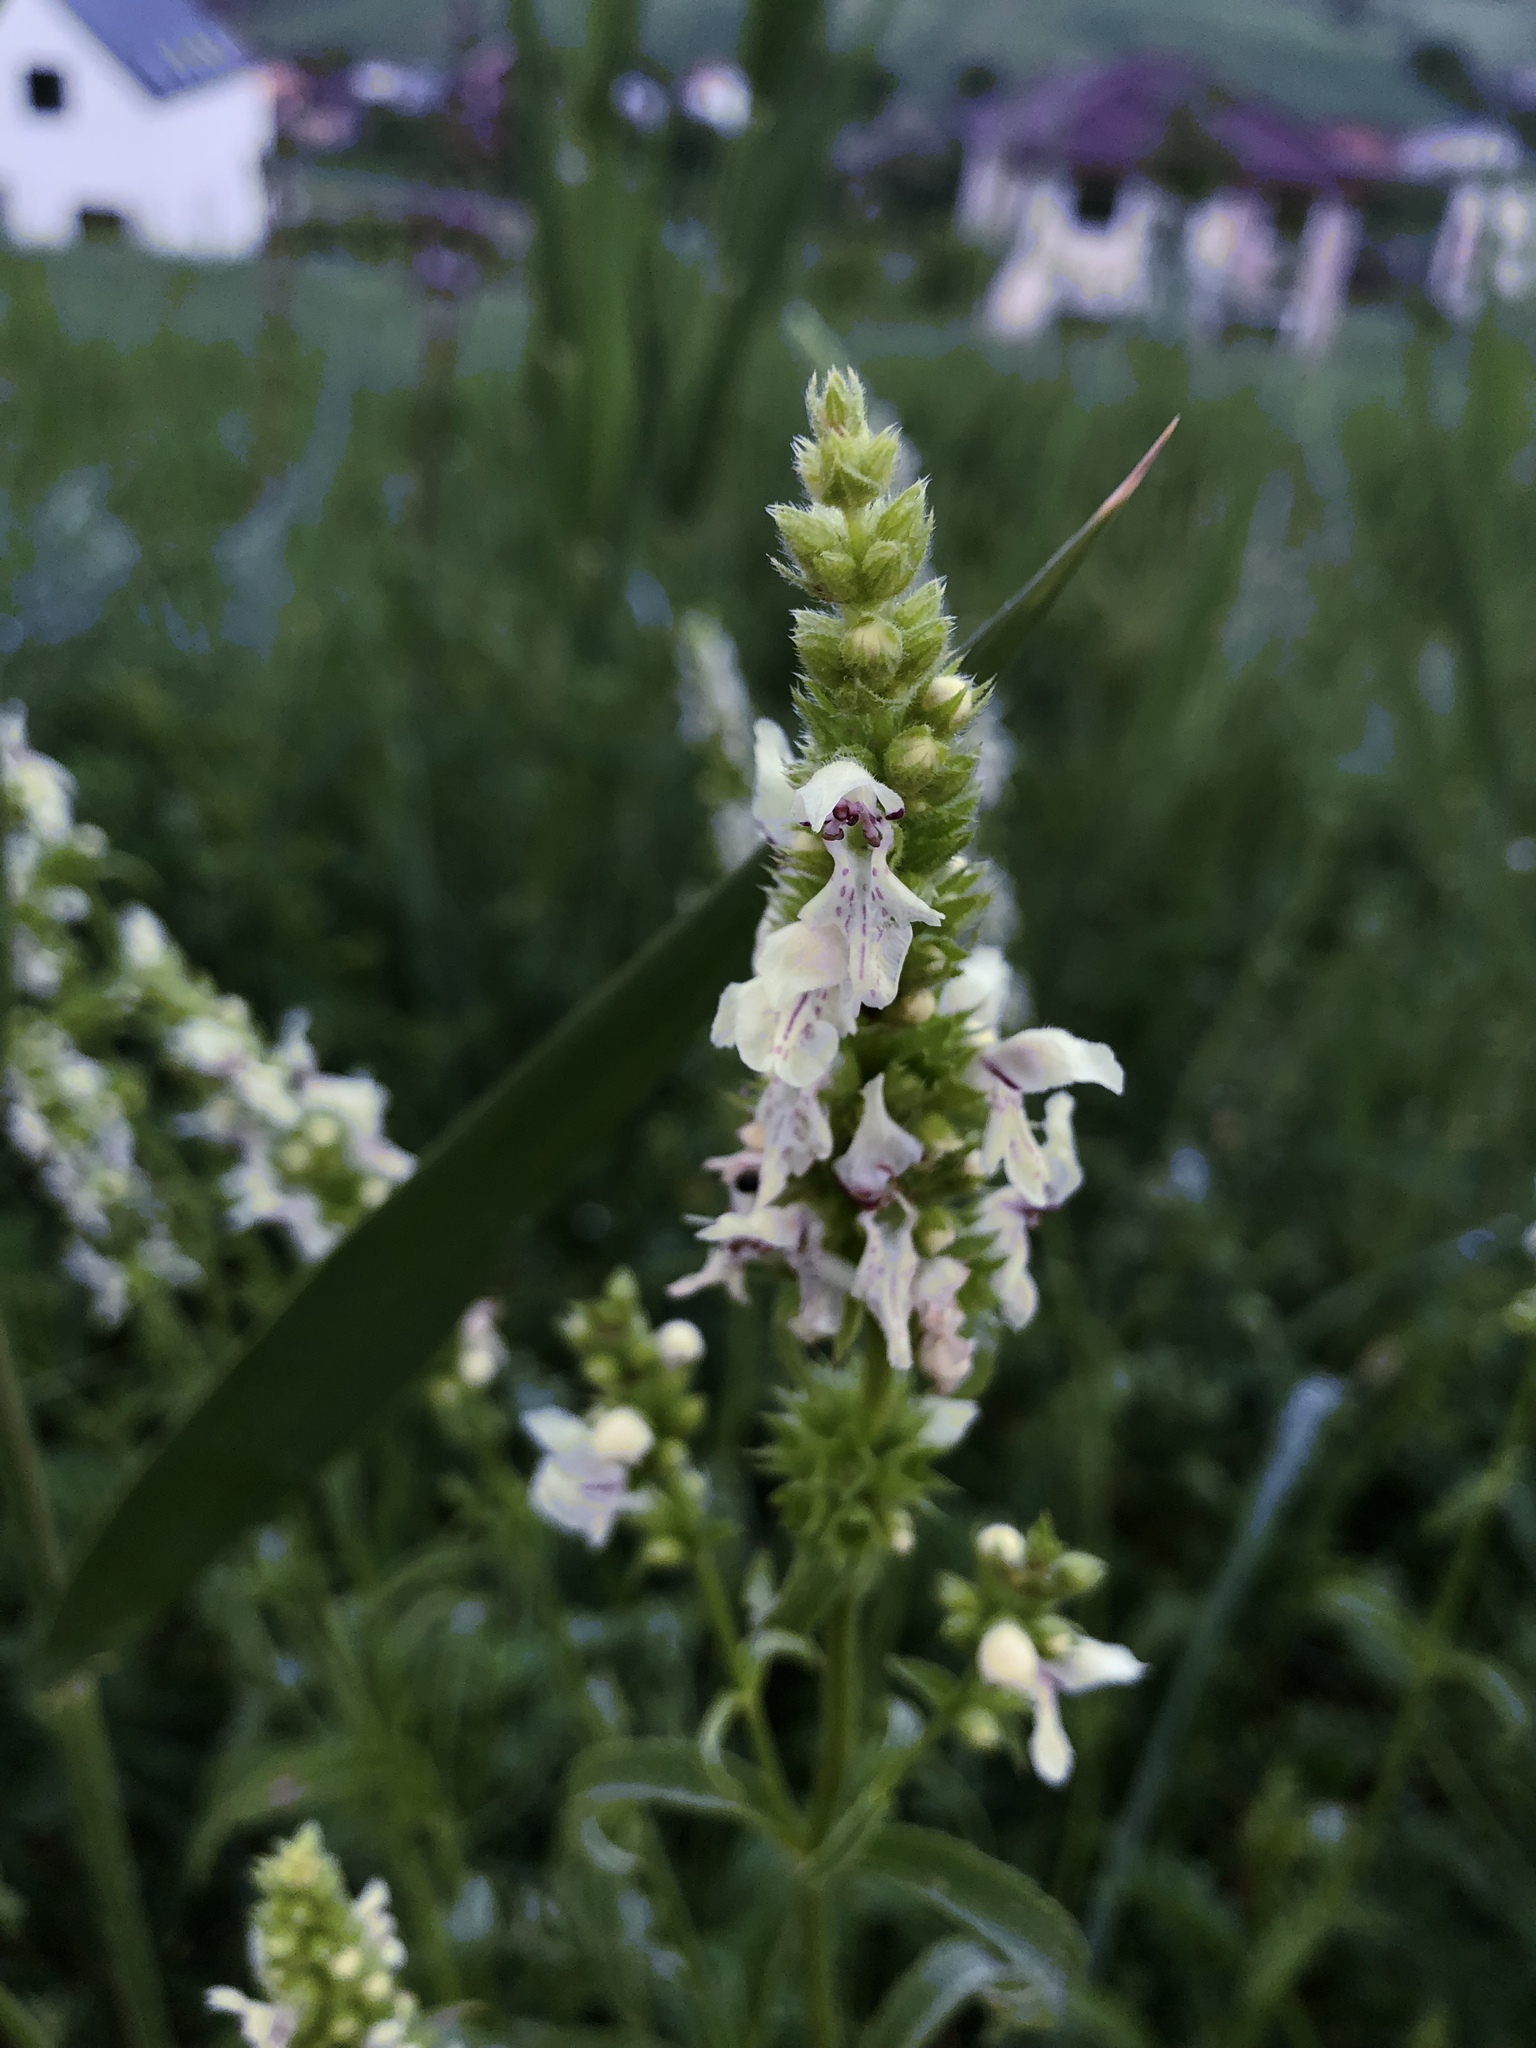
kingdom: Plantae
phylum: Tracheophyta
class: Magnoliopsida
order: Lamiales
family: Lamiaceae
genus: Stachys
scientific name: Stachys recta
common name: Perennial yellow-woundwort
